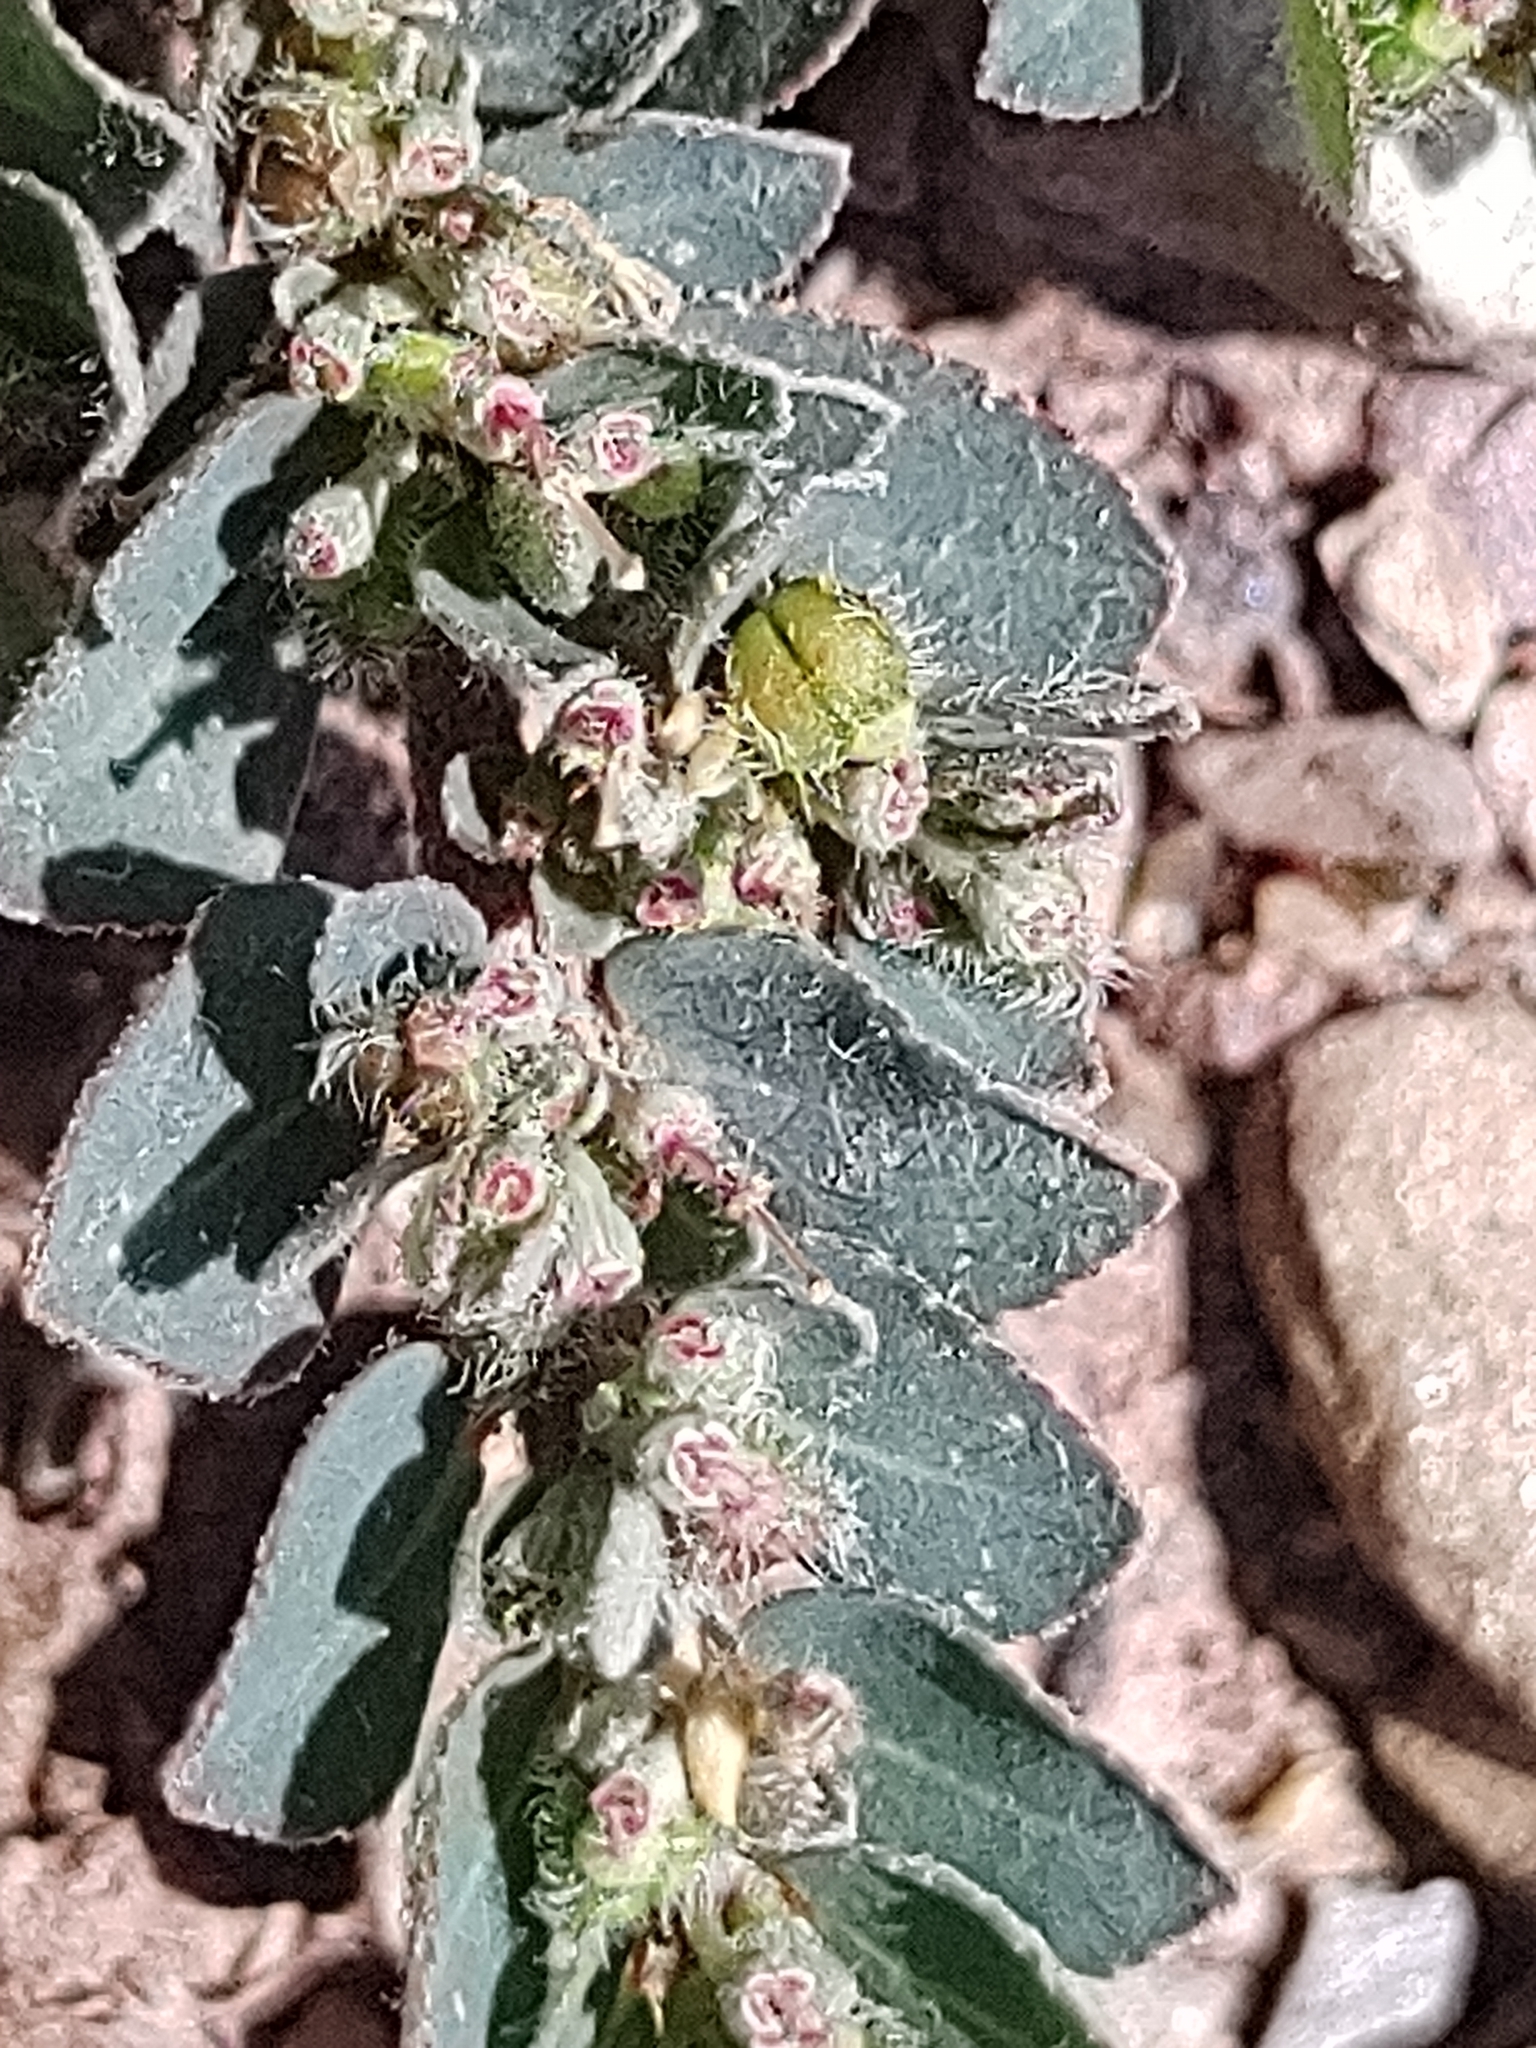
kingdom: Plantae
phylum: Tracheophyta
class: Magnoliopsida
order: Malpighiales
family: Euphorbiaceae
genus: Euphorbia
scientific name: Euphorbia prostrata
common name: Prostrate sandmat
